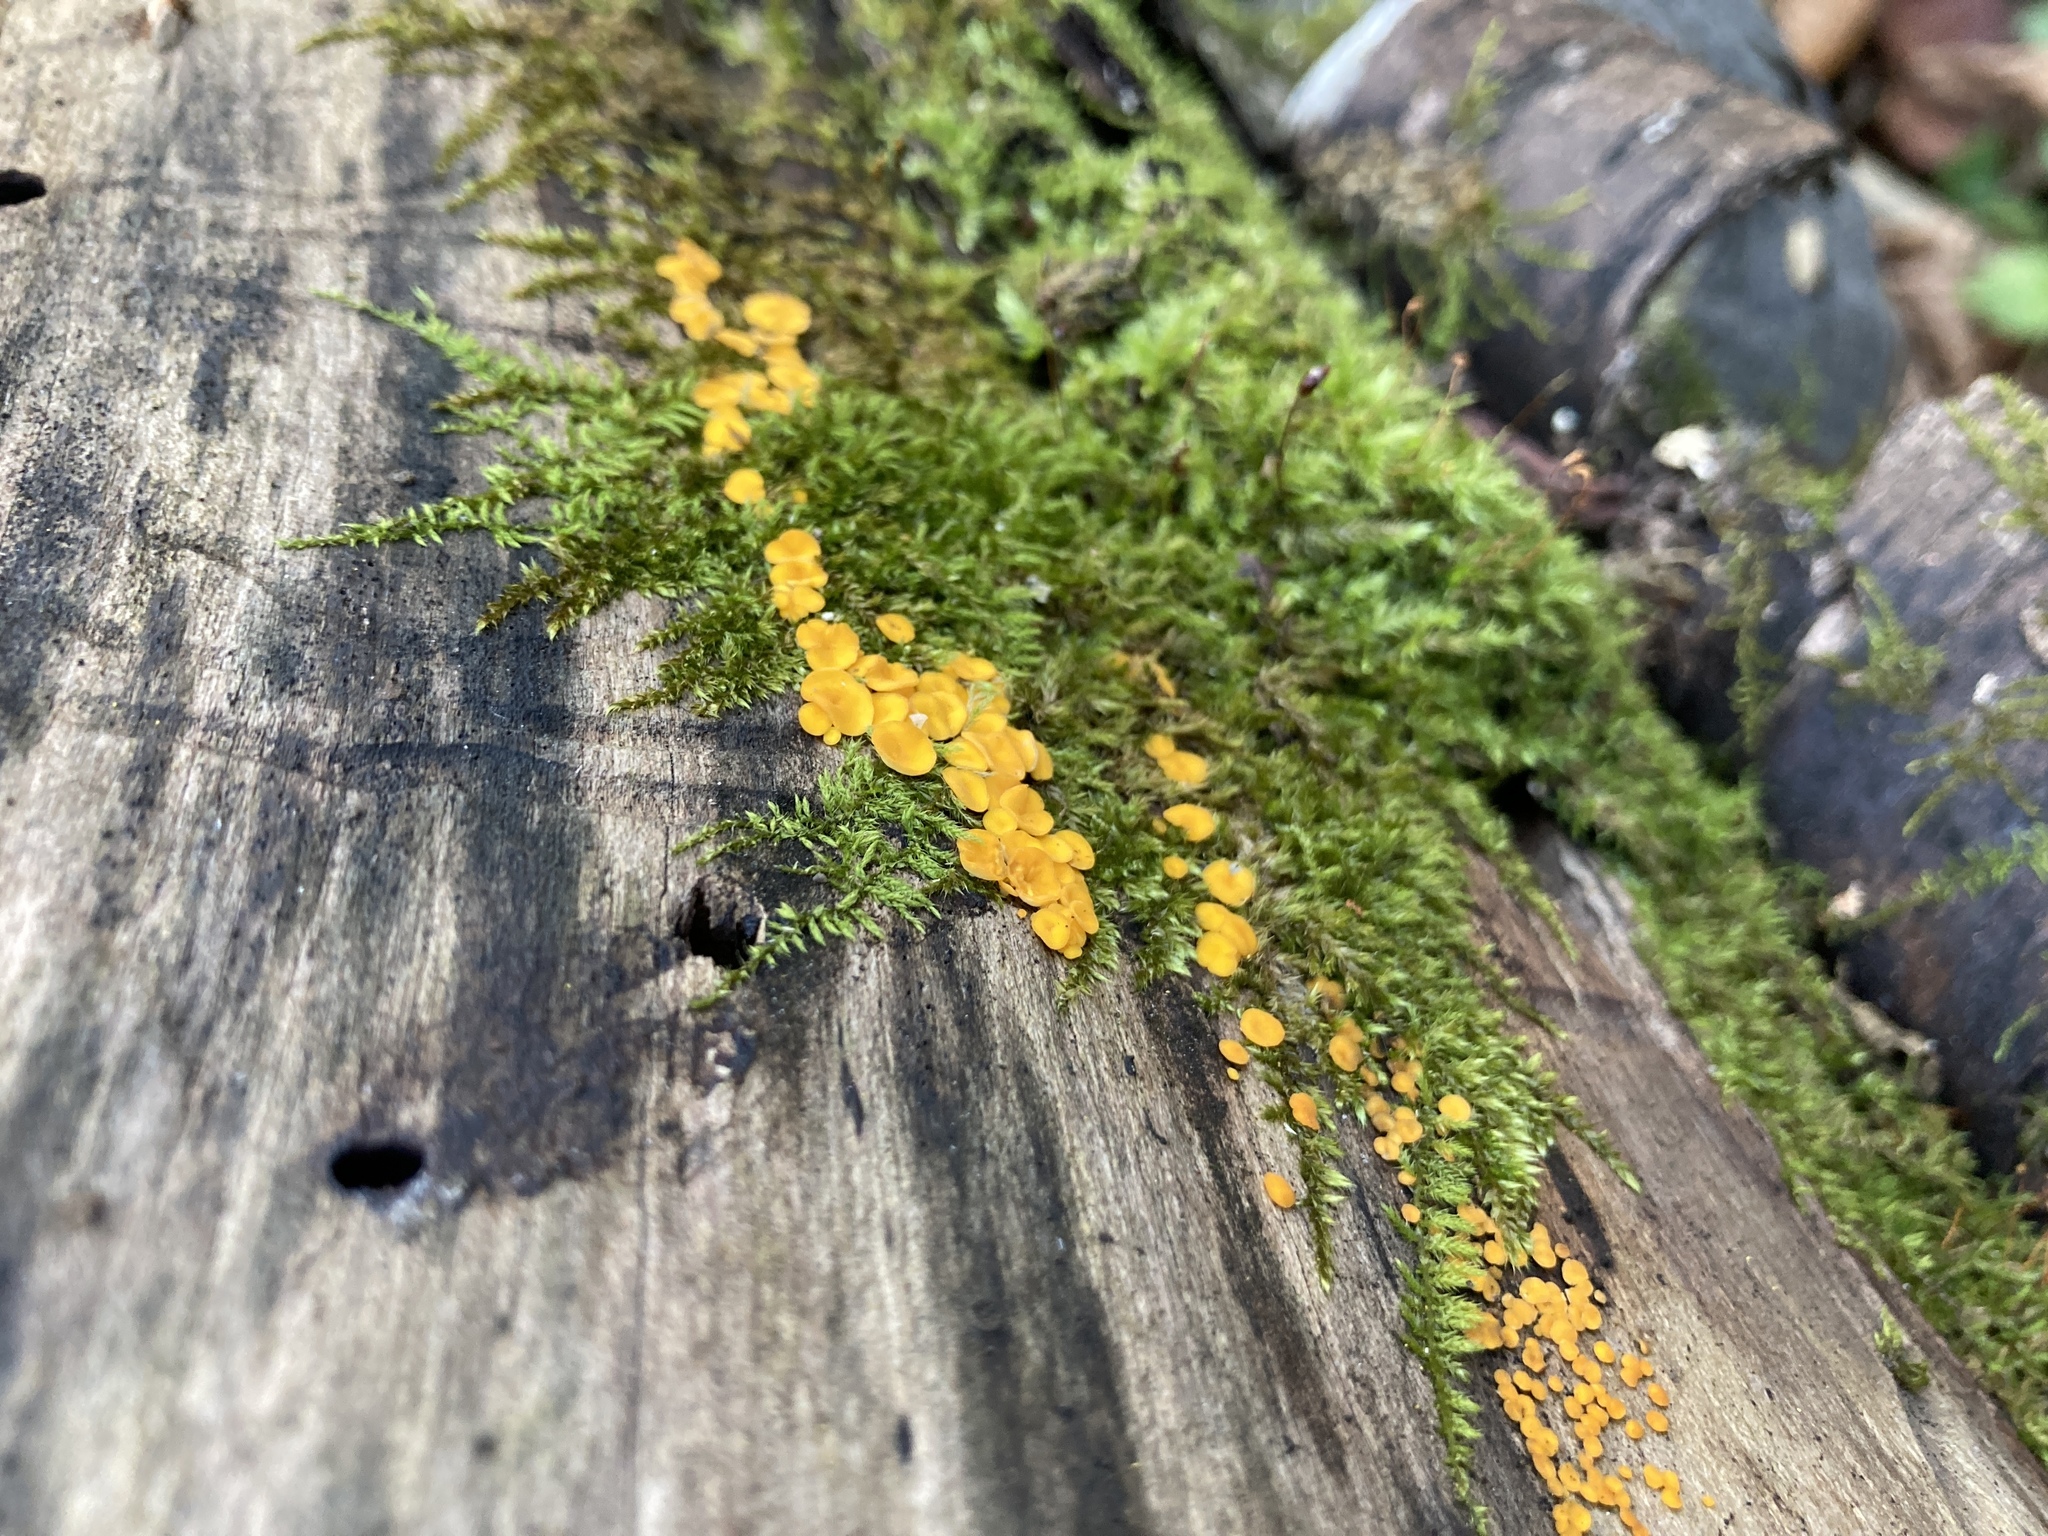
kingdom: Fungi
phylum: Ascomycota
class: Leotiomycetes
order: Helotiales
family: Pezizellaceae
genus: Calycina
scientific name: Calycina citrina
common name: Yellow fairy cups
